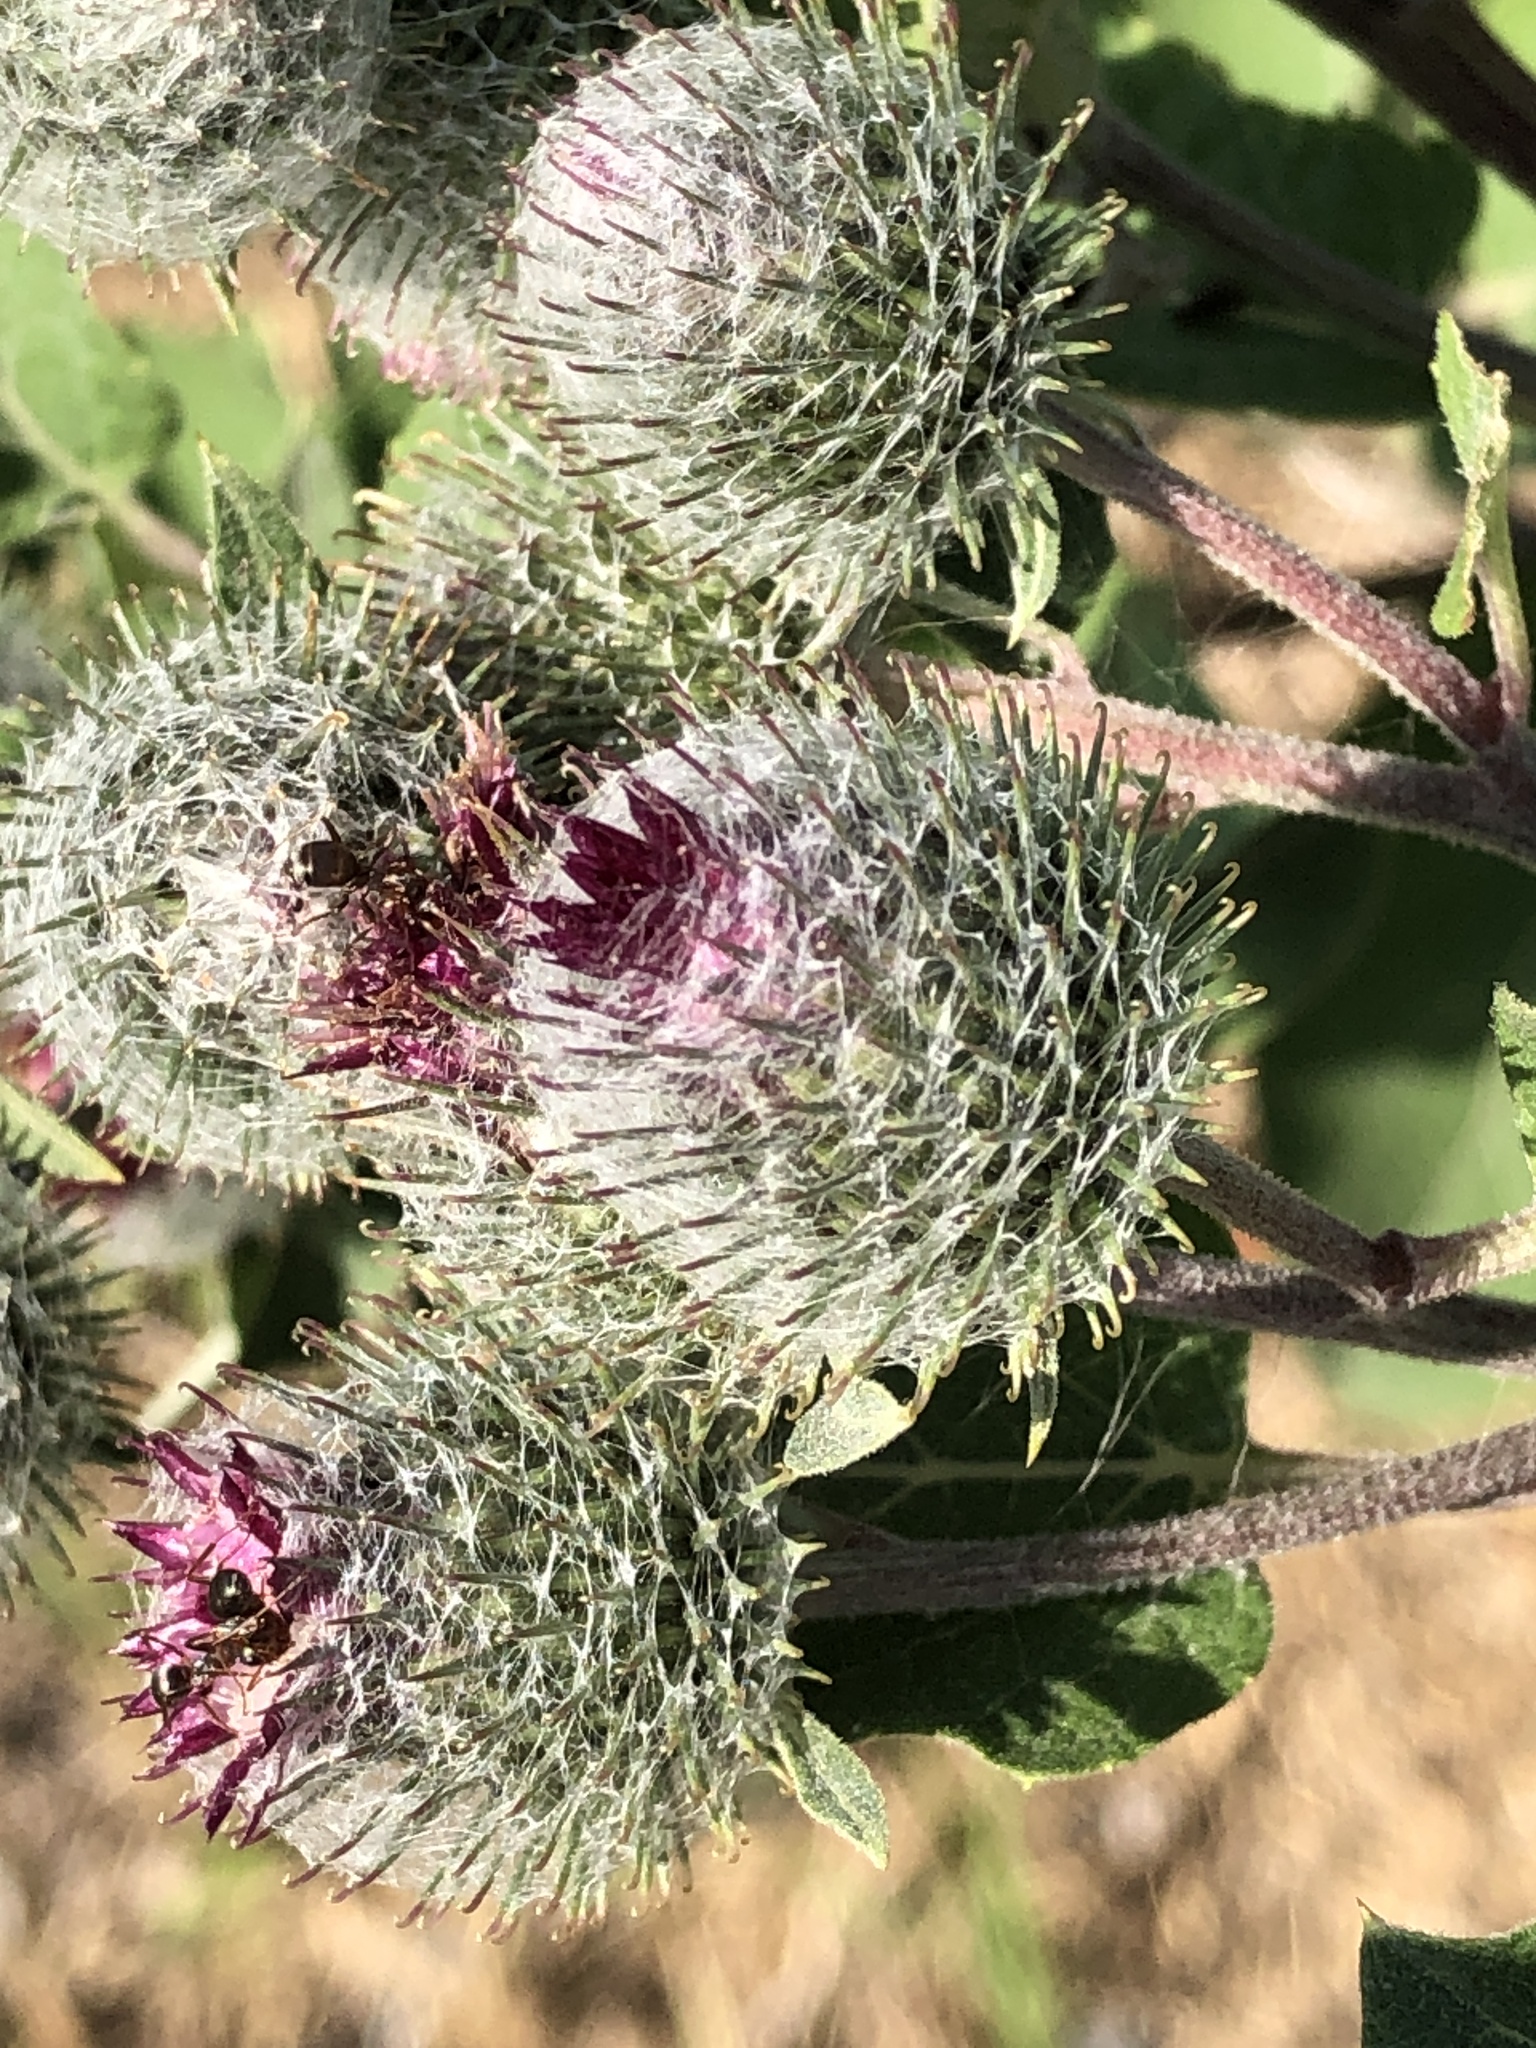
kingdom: Plantae
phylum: Tracheophyta
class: Magnoliopsida
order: Asterales
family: Asteraceae
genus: Arctium
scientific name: Arctium tomentosum
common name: Woolly burdock
